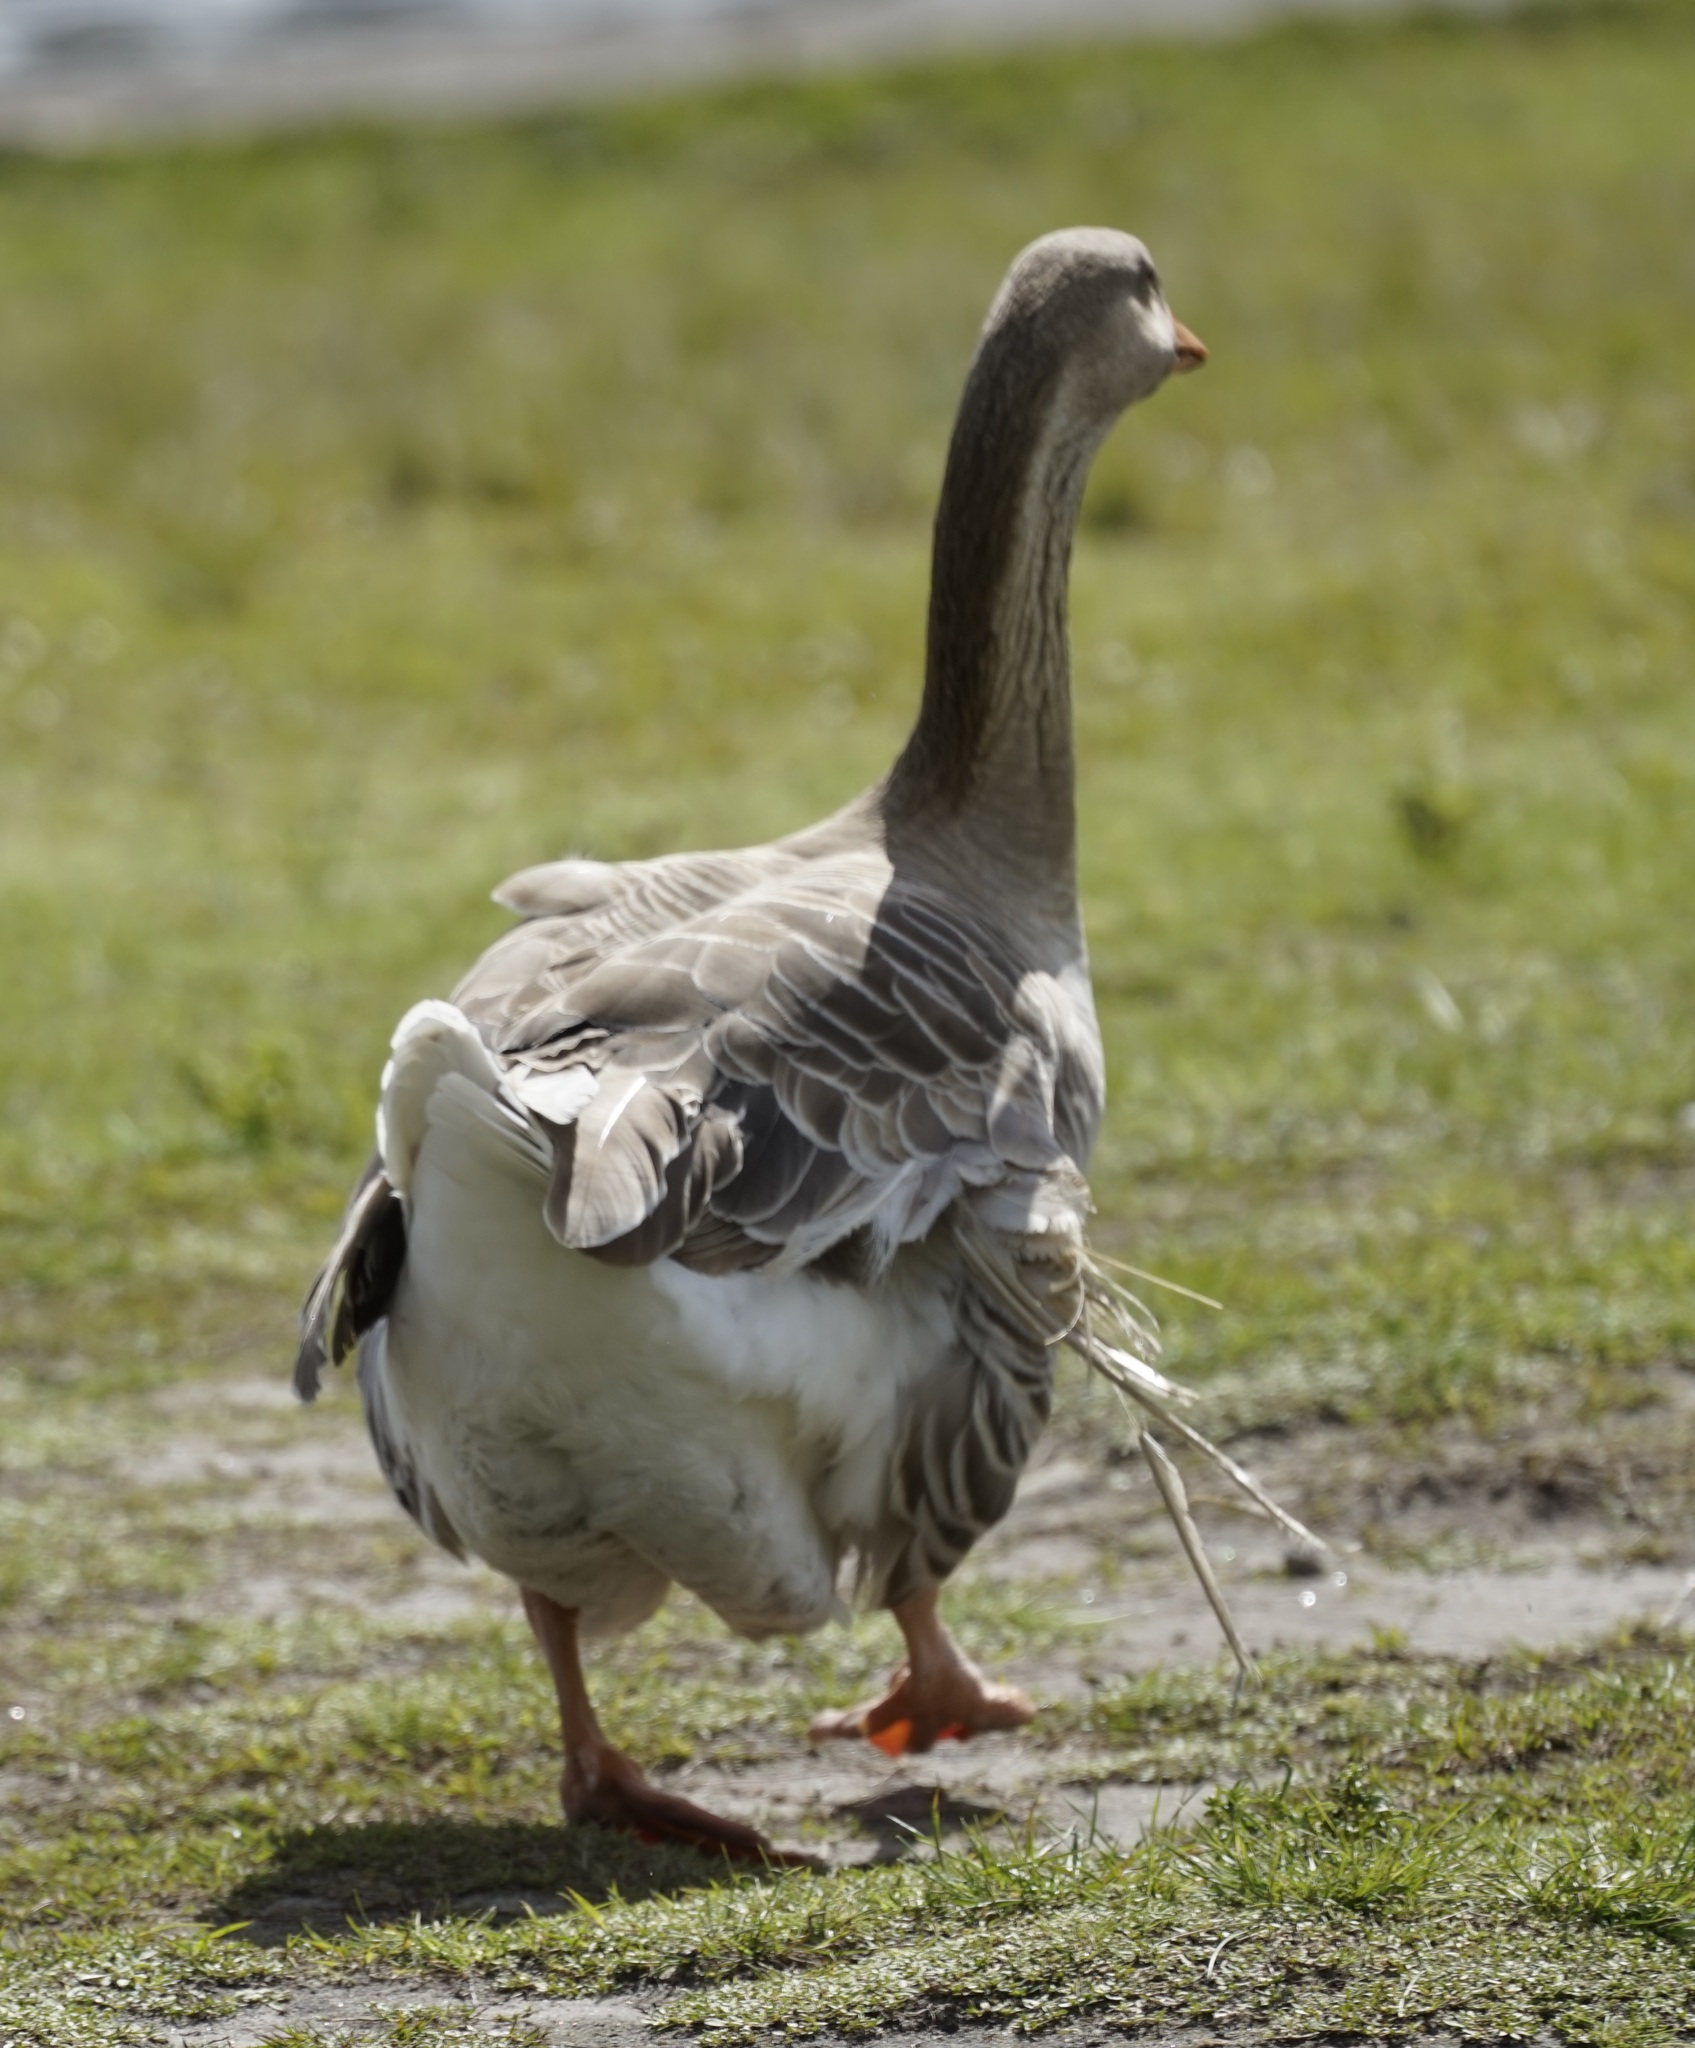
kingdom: Animalia
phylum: Chordata
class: Aves
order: Anseriformes
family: Anatidae
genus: Anser
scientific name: Anser anser
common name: Greylag goose
